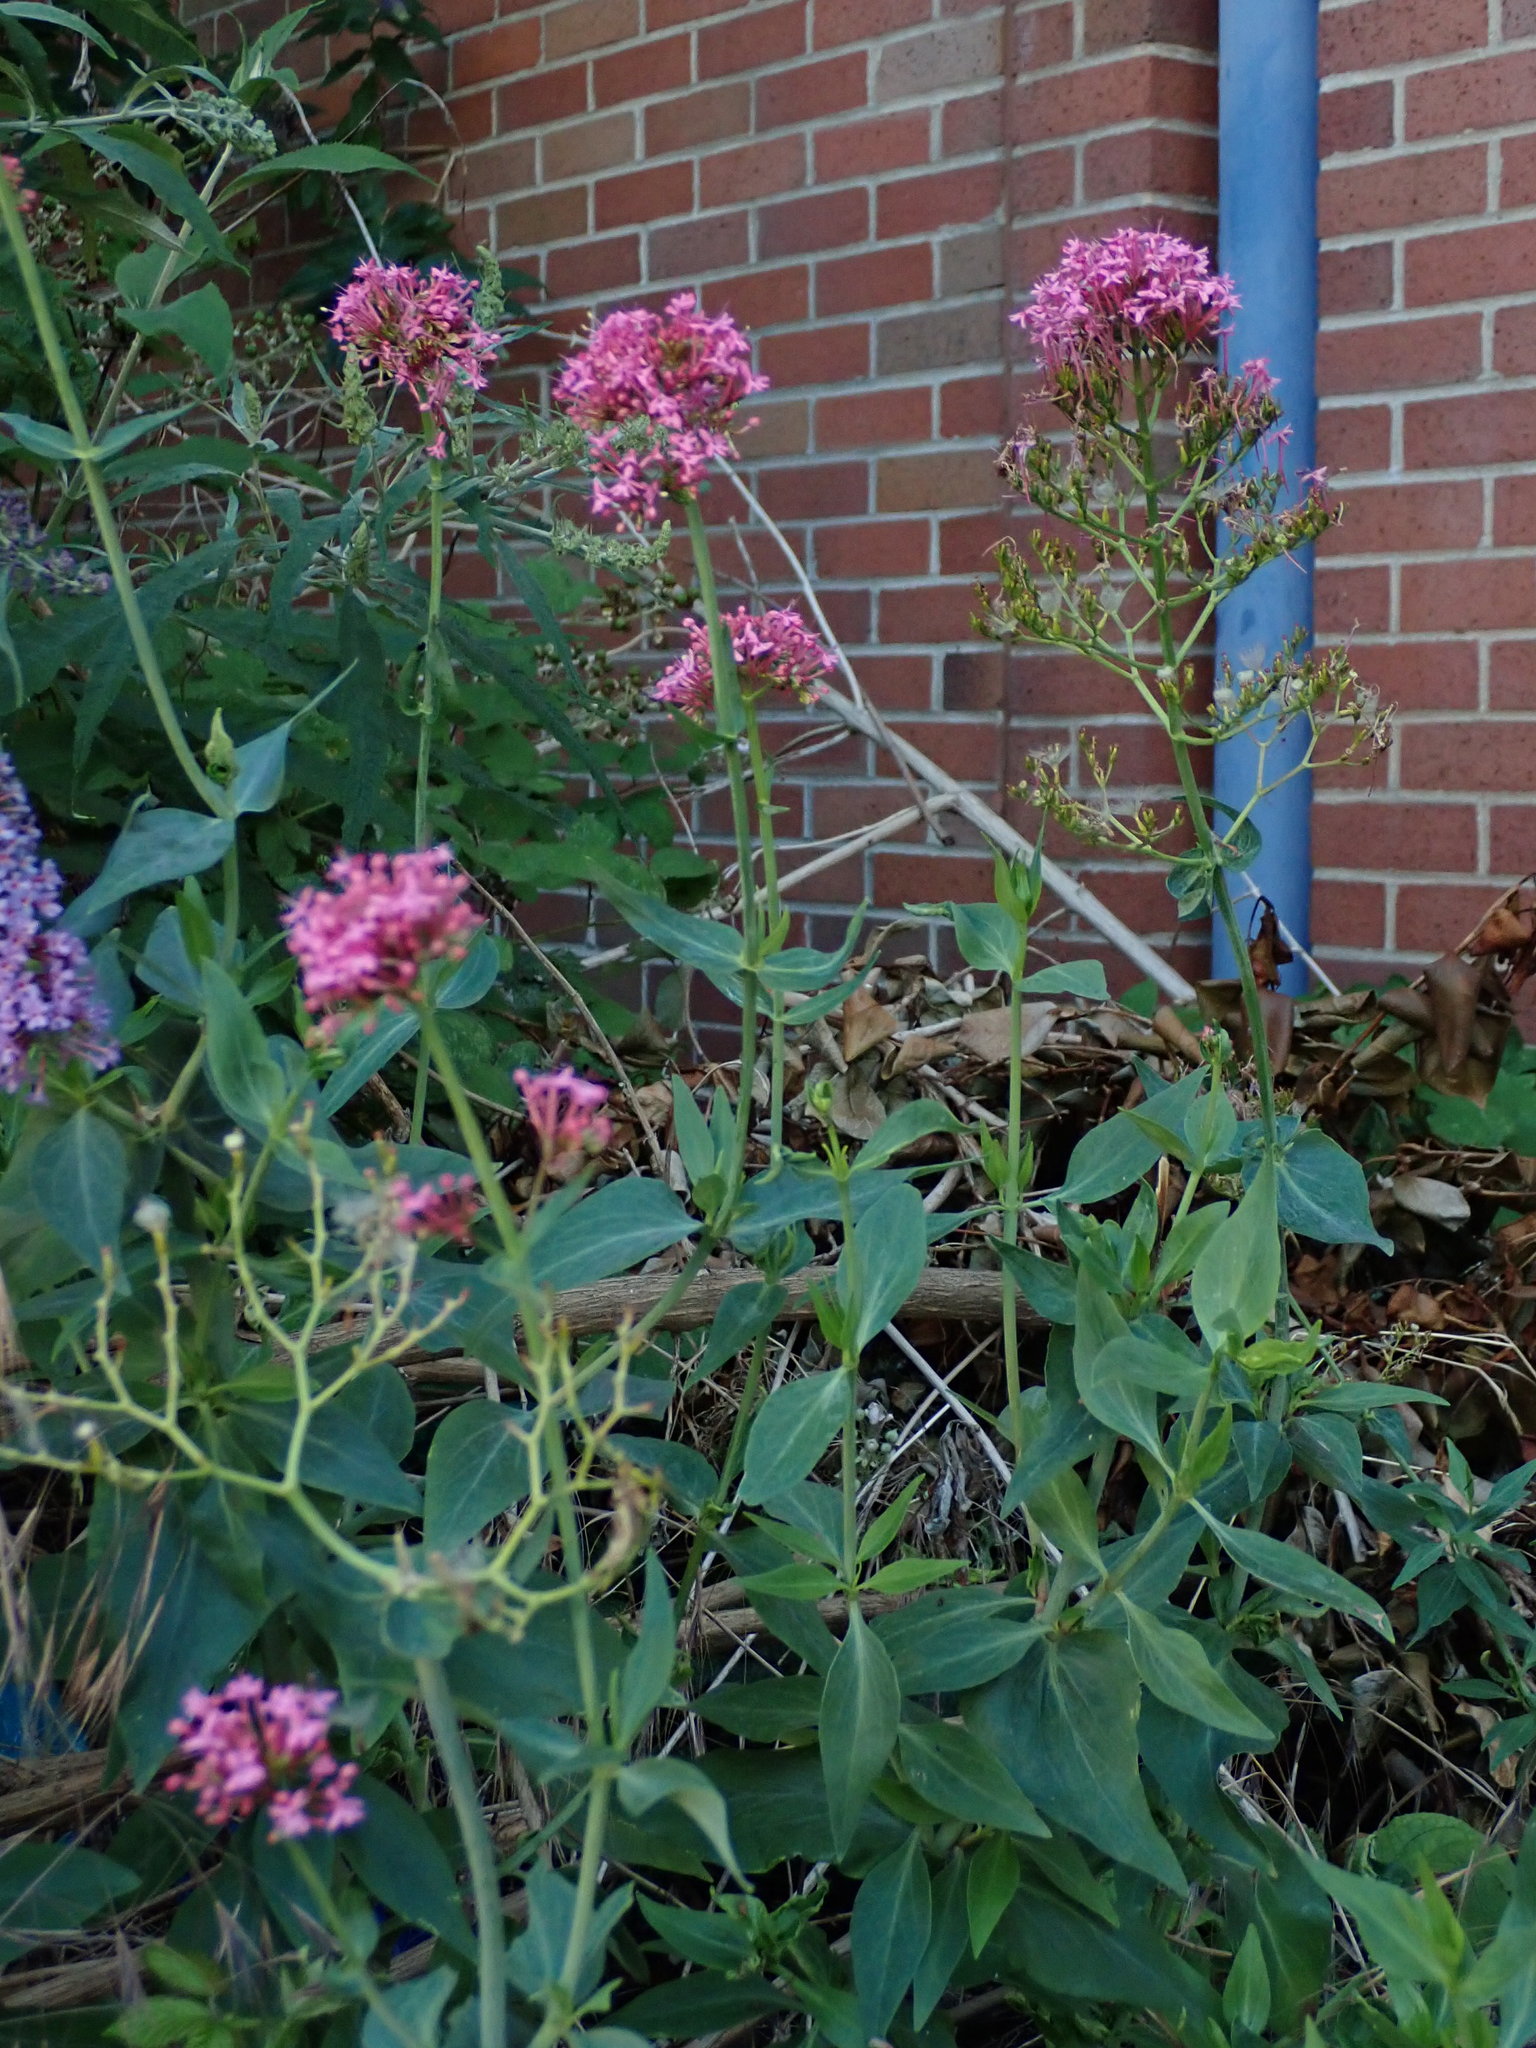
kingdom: Plantae
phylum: Tracheophyta
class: Magnoliopsida
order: Dipsacales
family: Caprifoliaceae
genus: Centranthus
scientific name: Centranthus ruber
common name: Red valerian
